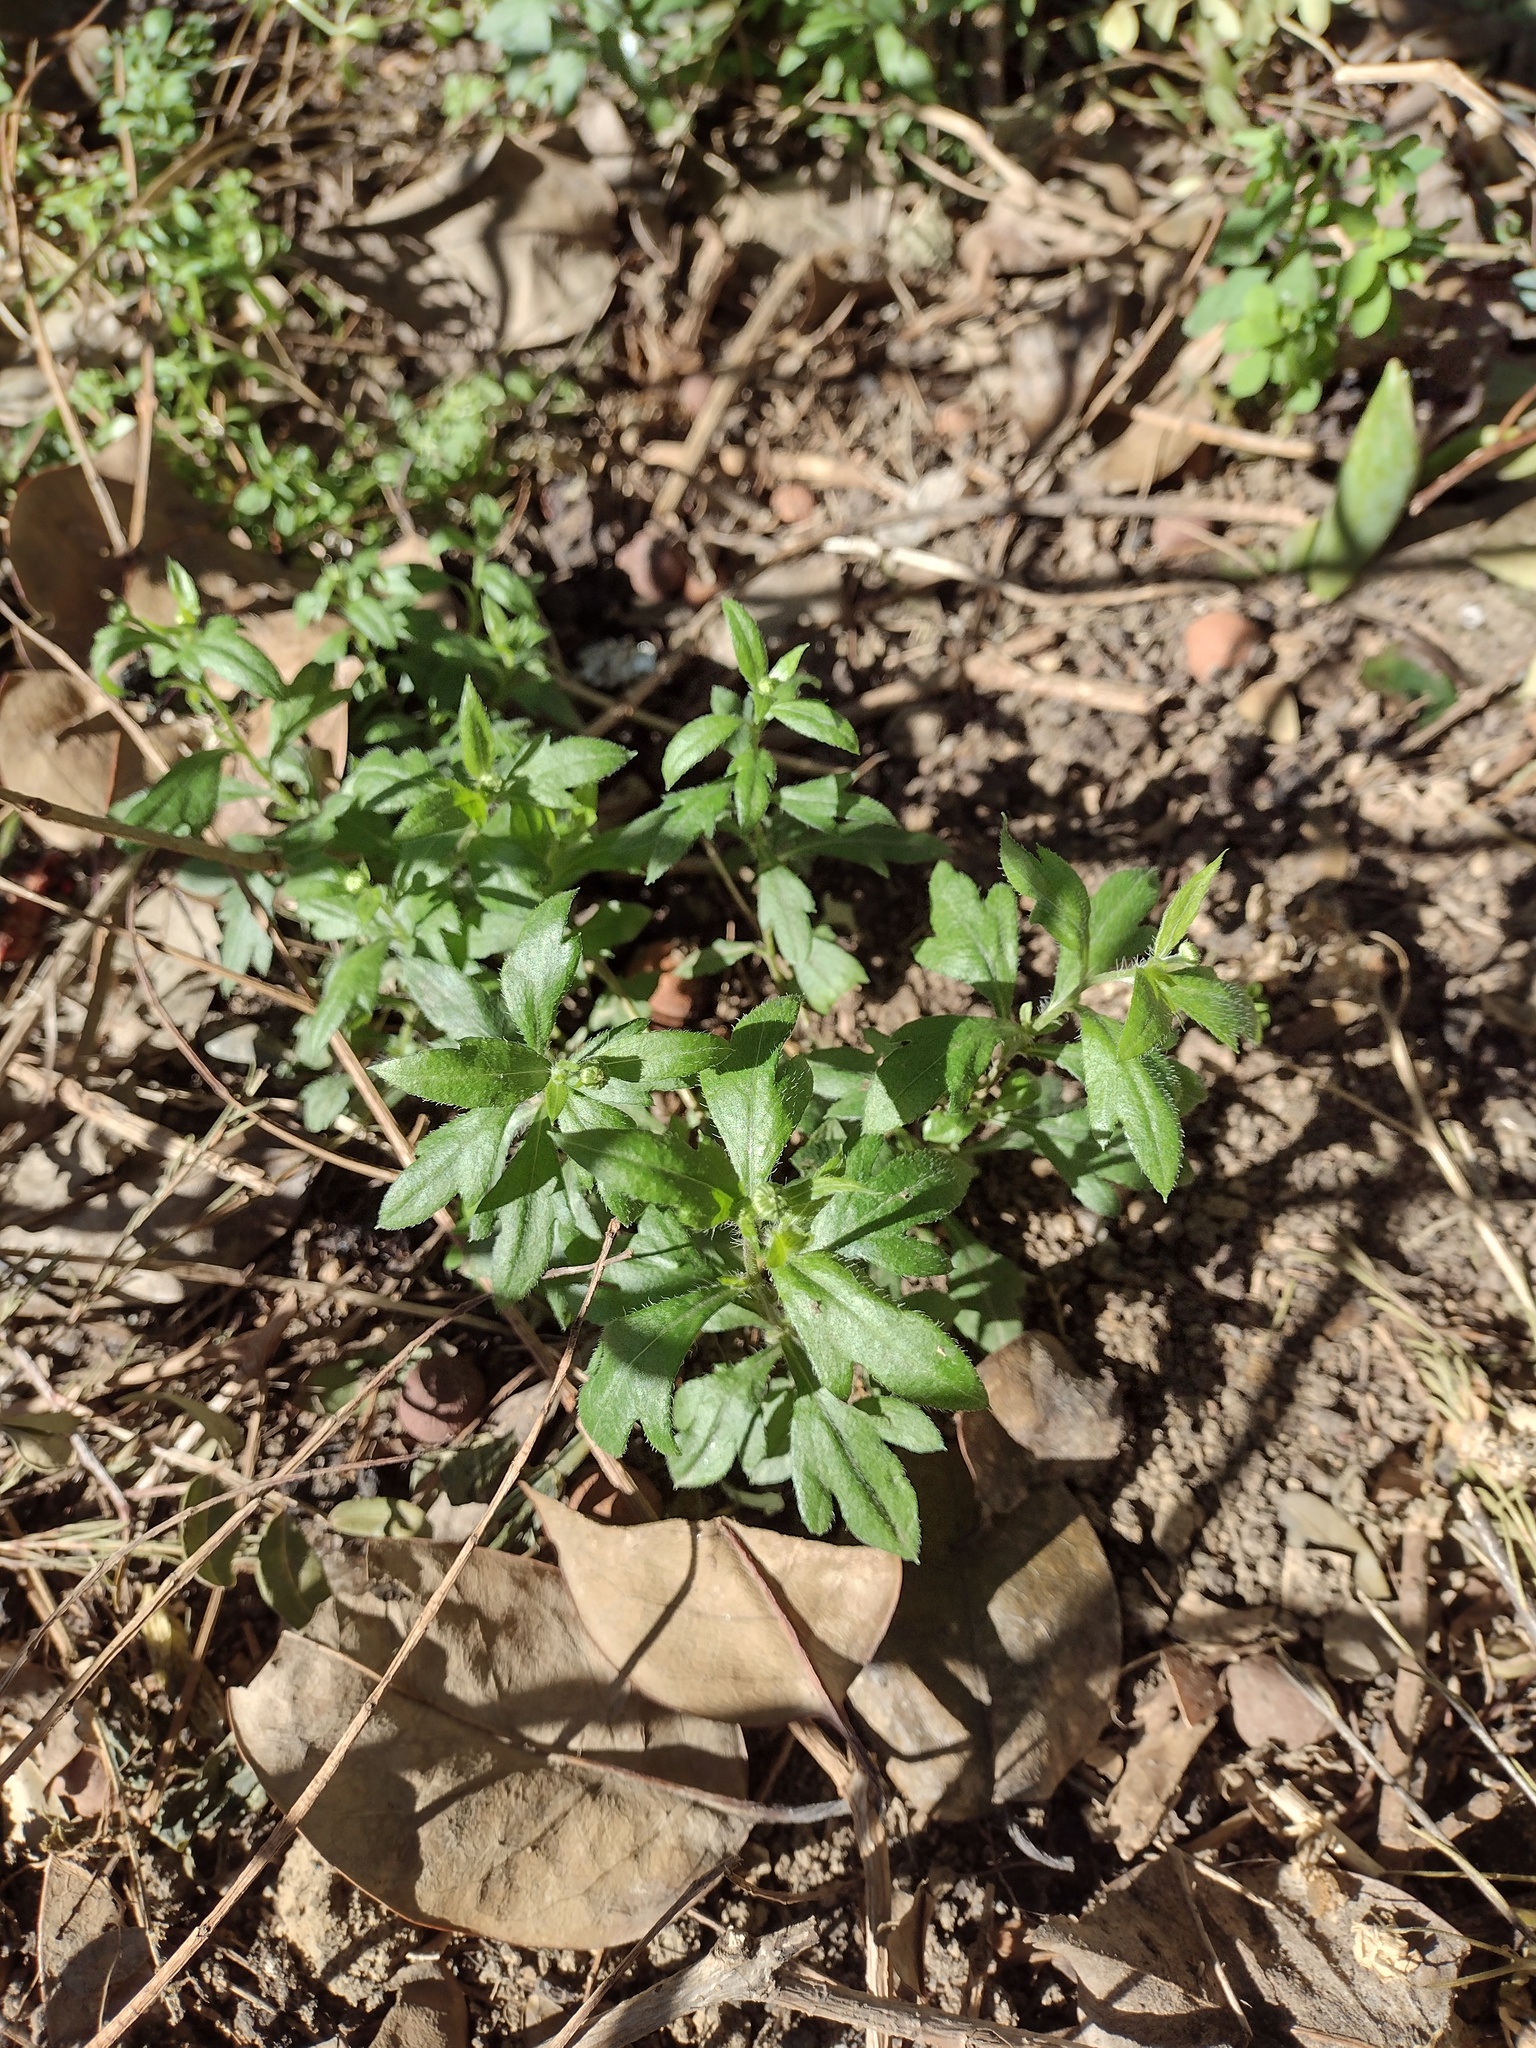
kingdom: Plantae
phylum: Tracheophyta
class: Magnoliopsida
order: Asterales
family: Asteraceae
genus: Erigeron
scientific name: Erigeron karvinskianus
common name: Mexican fleabane
